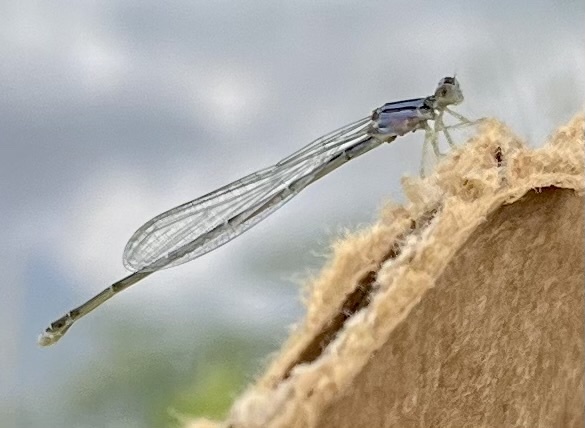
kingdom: Animalia
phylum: Arthropoda
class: Insecta
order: Odonata
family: Coenagrionidae
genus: Enallagma
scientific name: Enallagma signatum
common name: Orange bluet
